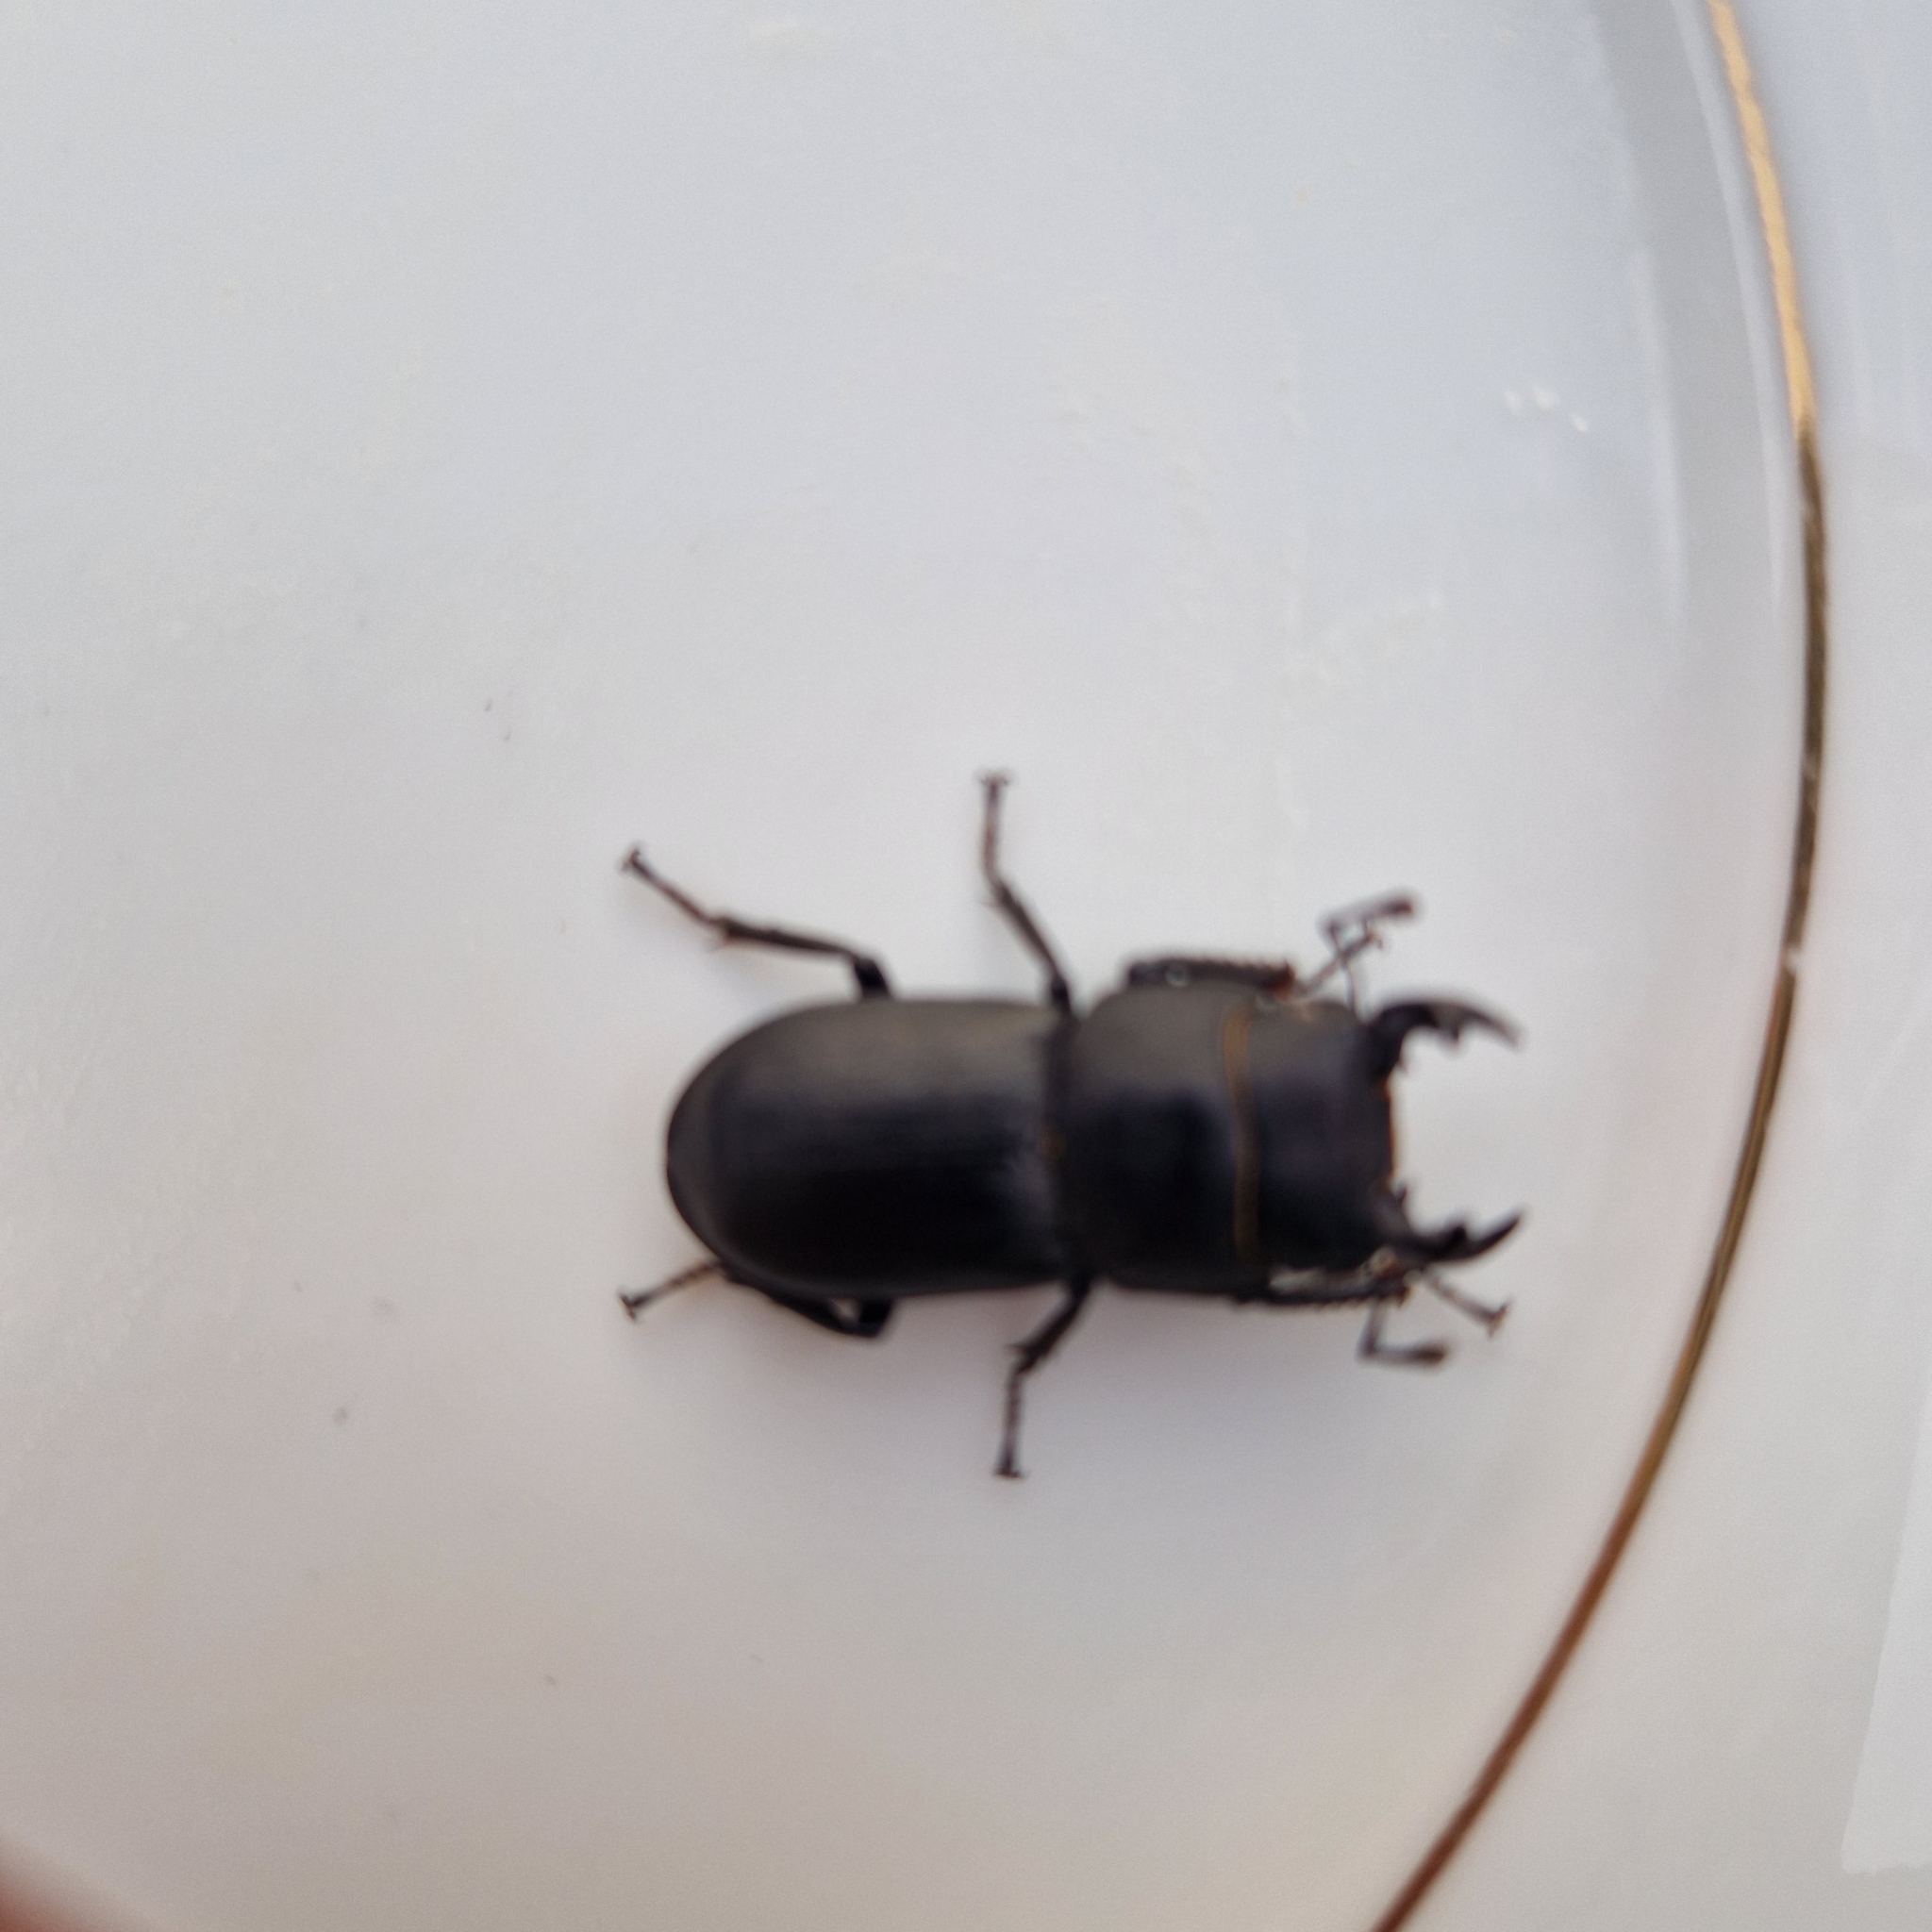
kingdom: Animalia
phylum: Arthropoda
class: Insecta
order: Coleoptera
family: Lucanidae
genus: Dorcus
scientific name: Dorcus parallelipipedus
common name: Lesser stag beetle
